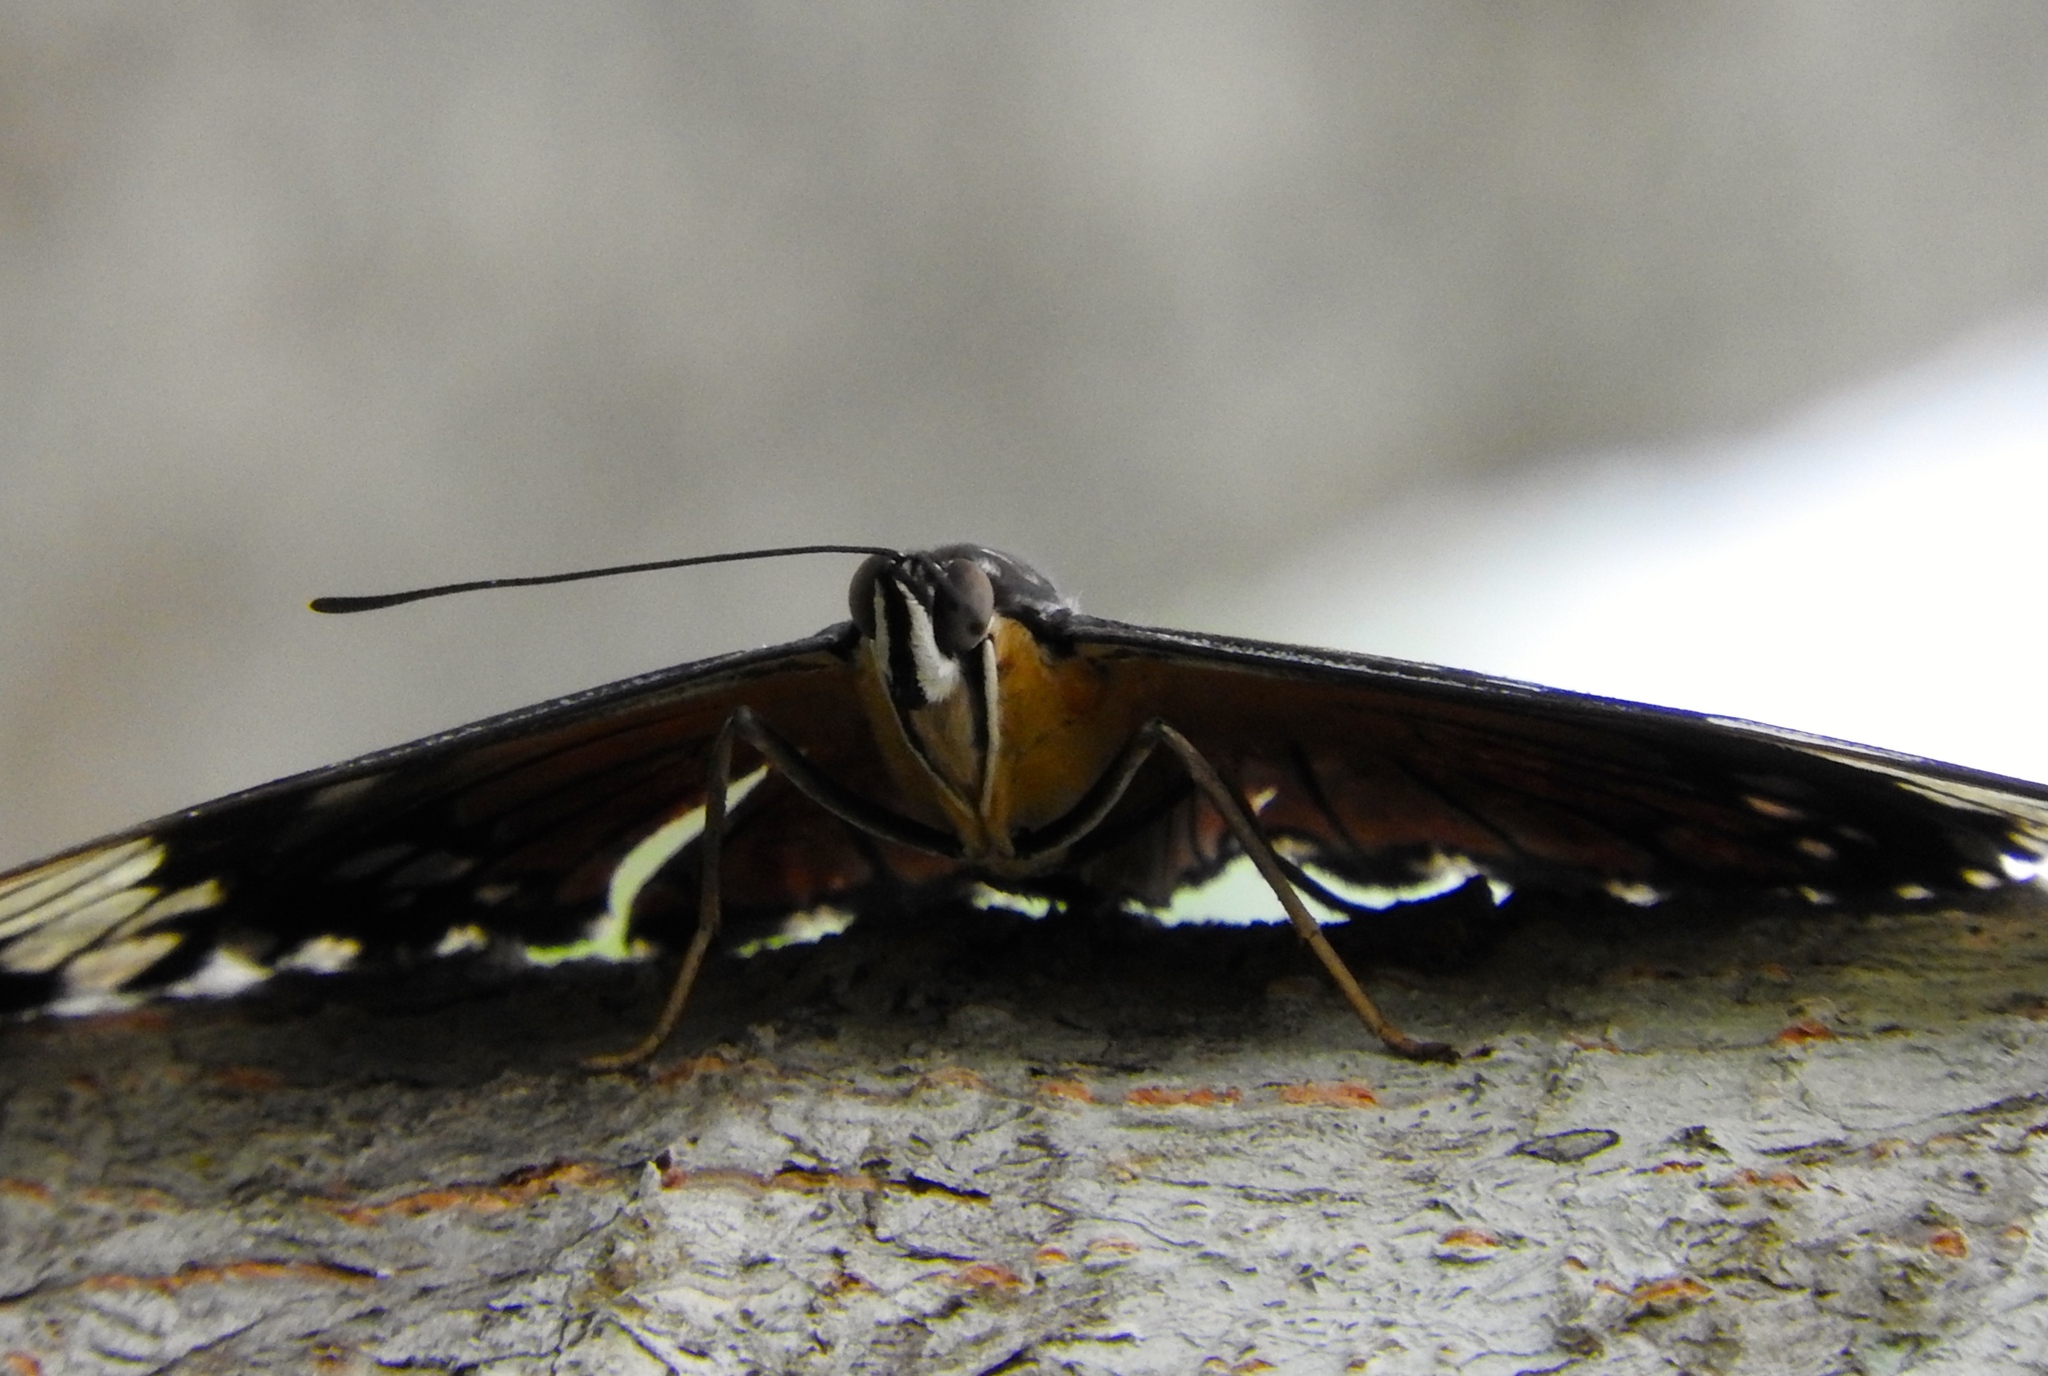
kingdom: Animalia
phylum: Arthropoda
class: Insecta
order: Lepidoptera
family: Nymphalidae
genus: Hamadryas
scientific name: Hamadryas
